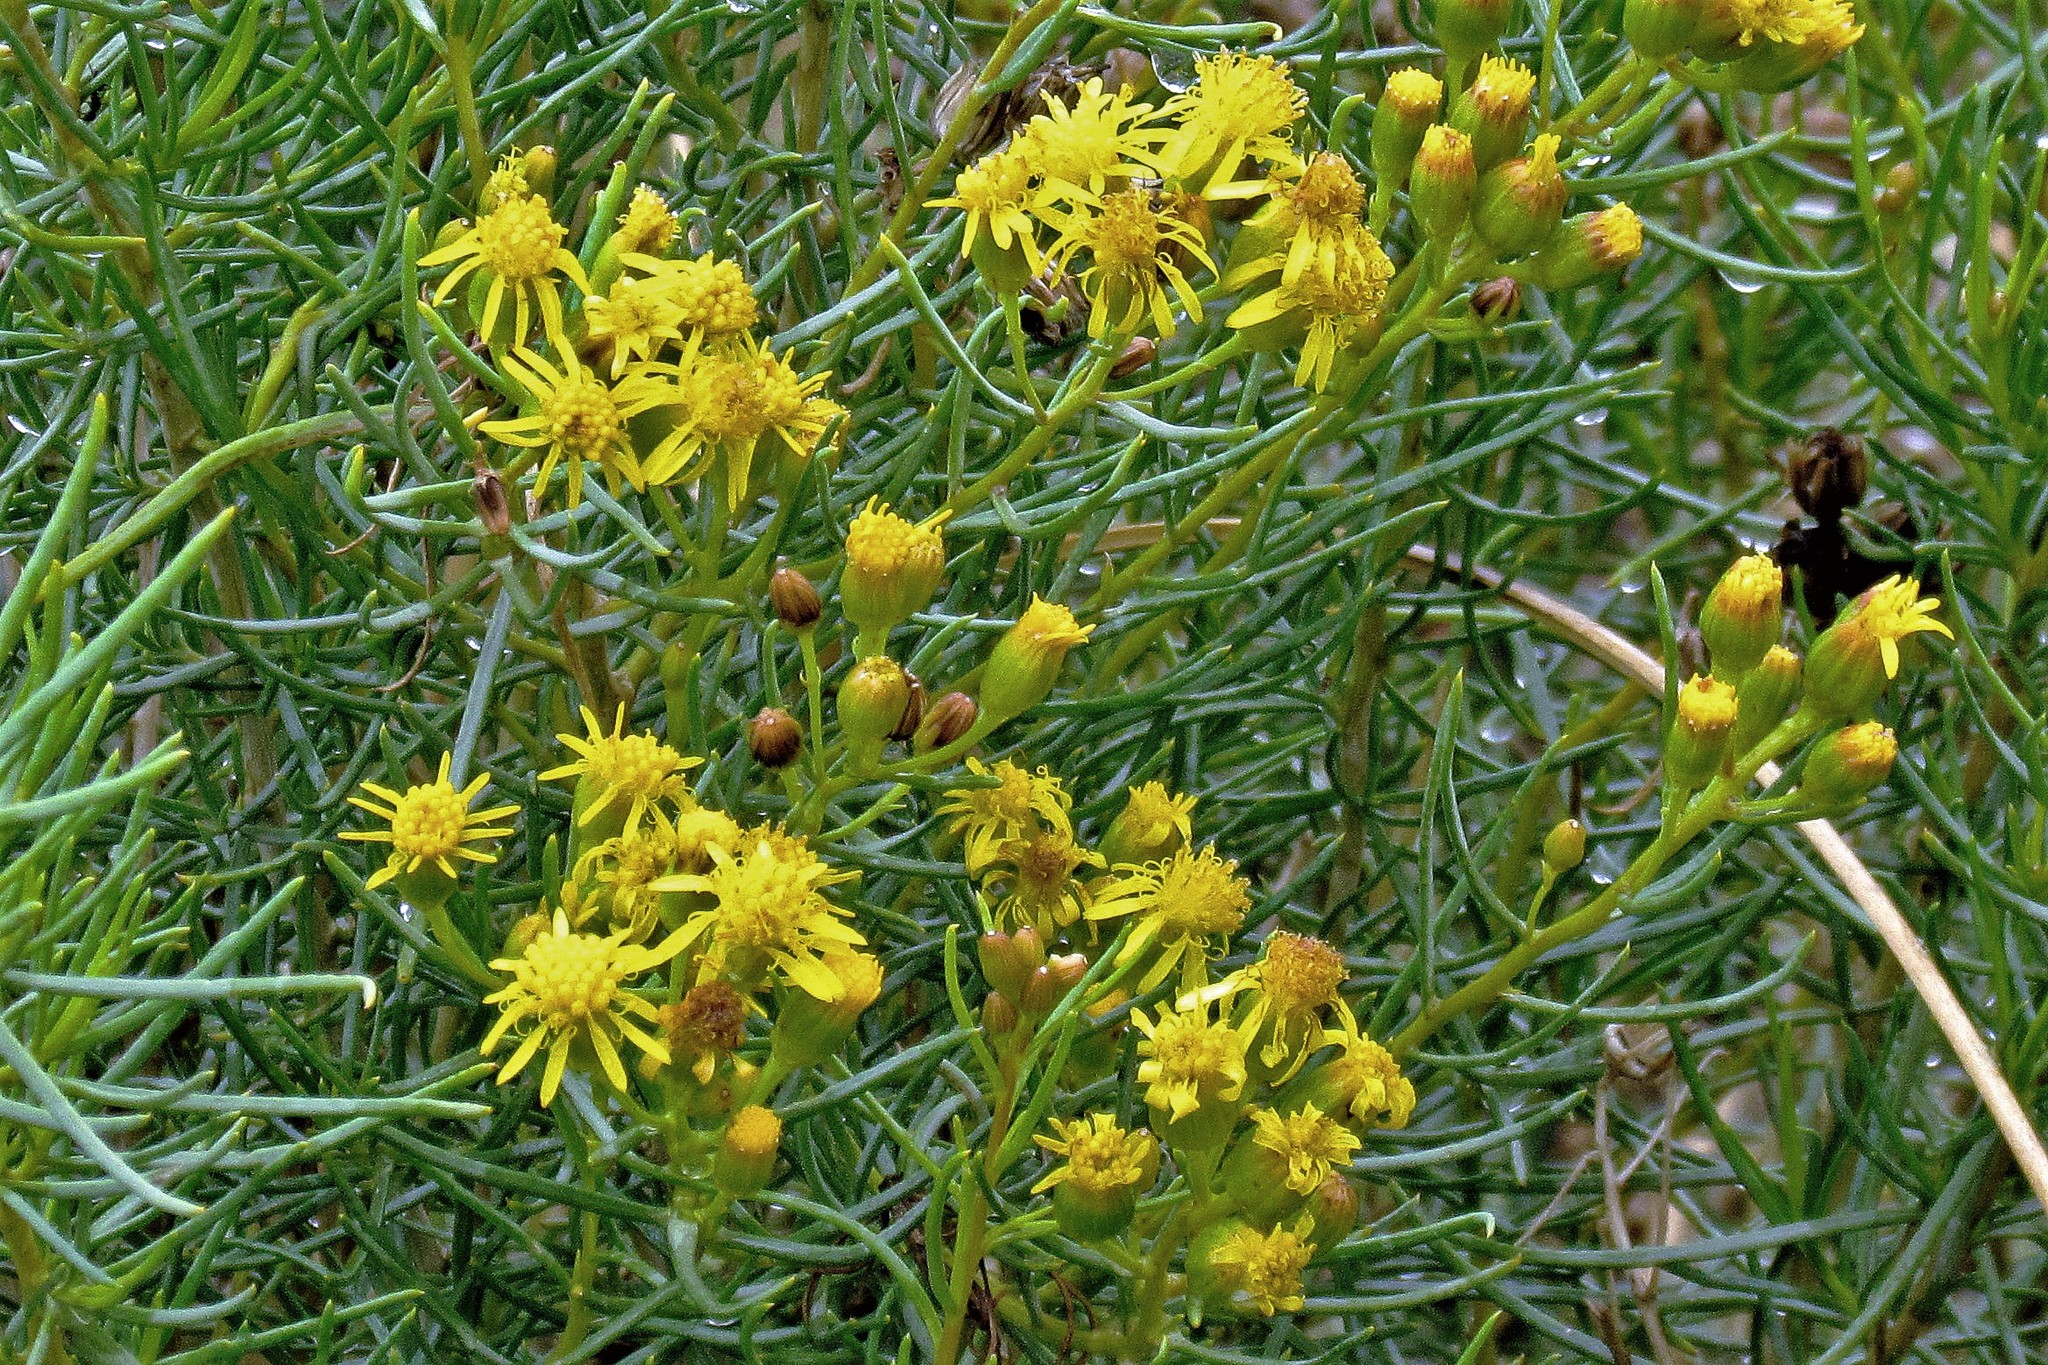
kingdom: Plantae
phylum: Tracheophyta
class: Magnoliopsida
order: Asterales
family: Asteraceae
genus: Senecio
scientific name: Senecio subulatus
